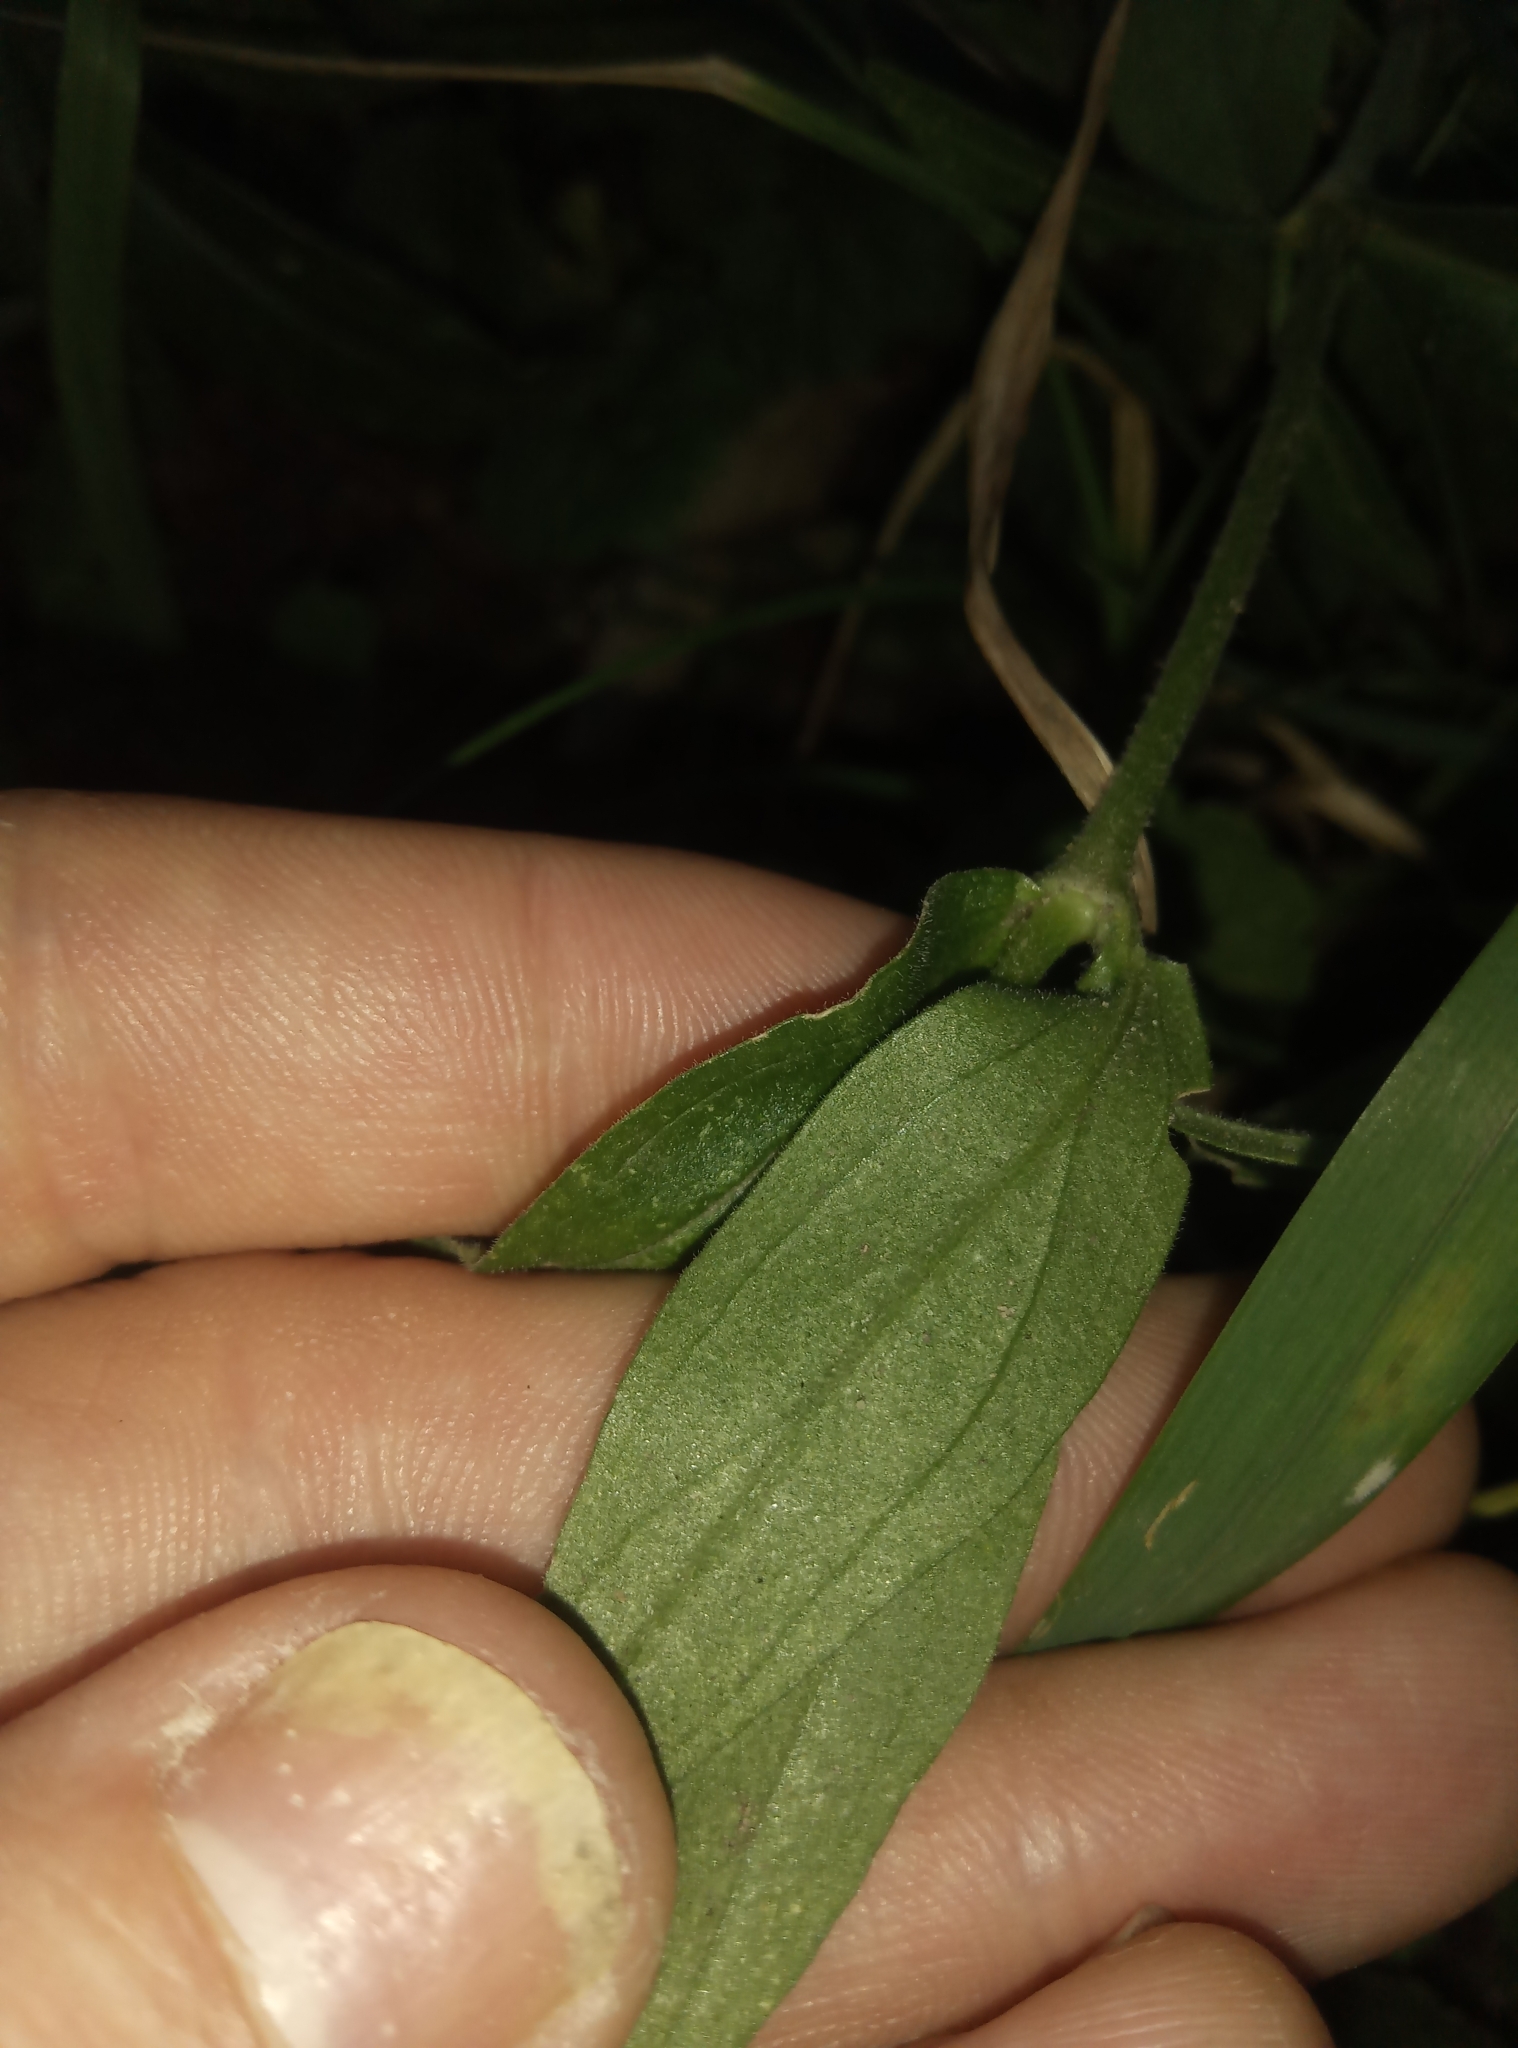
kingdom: Plantae
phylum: Tracheophyta
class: Magnoliopsida
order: Caryophyllales
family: Caryophyllaceae
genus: Silene
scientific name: Silene latifolia
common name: White campion
